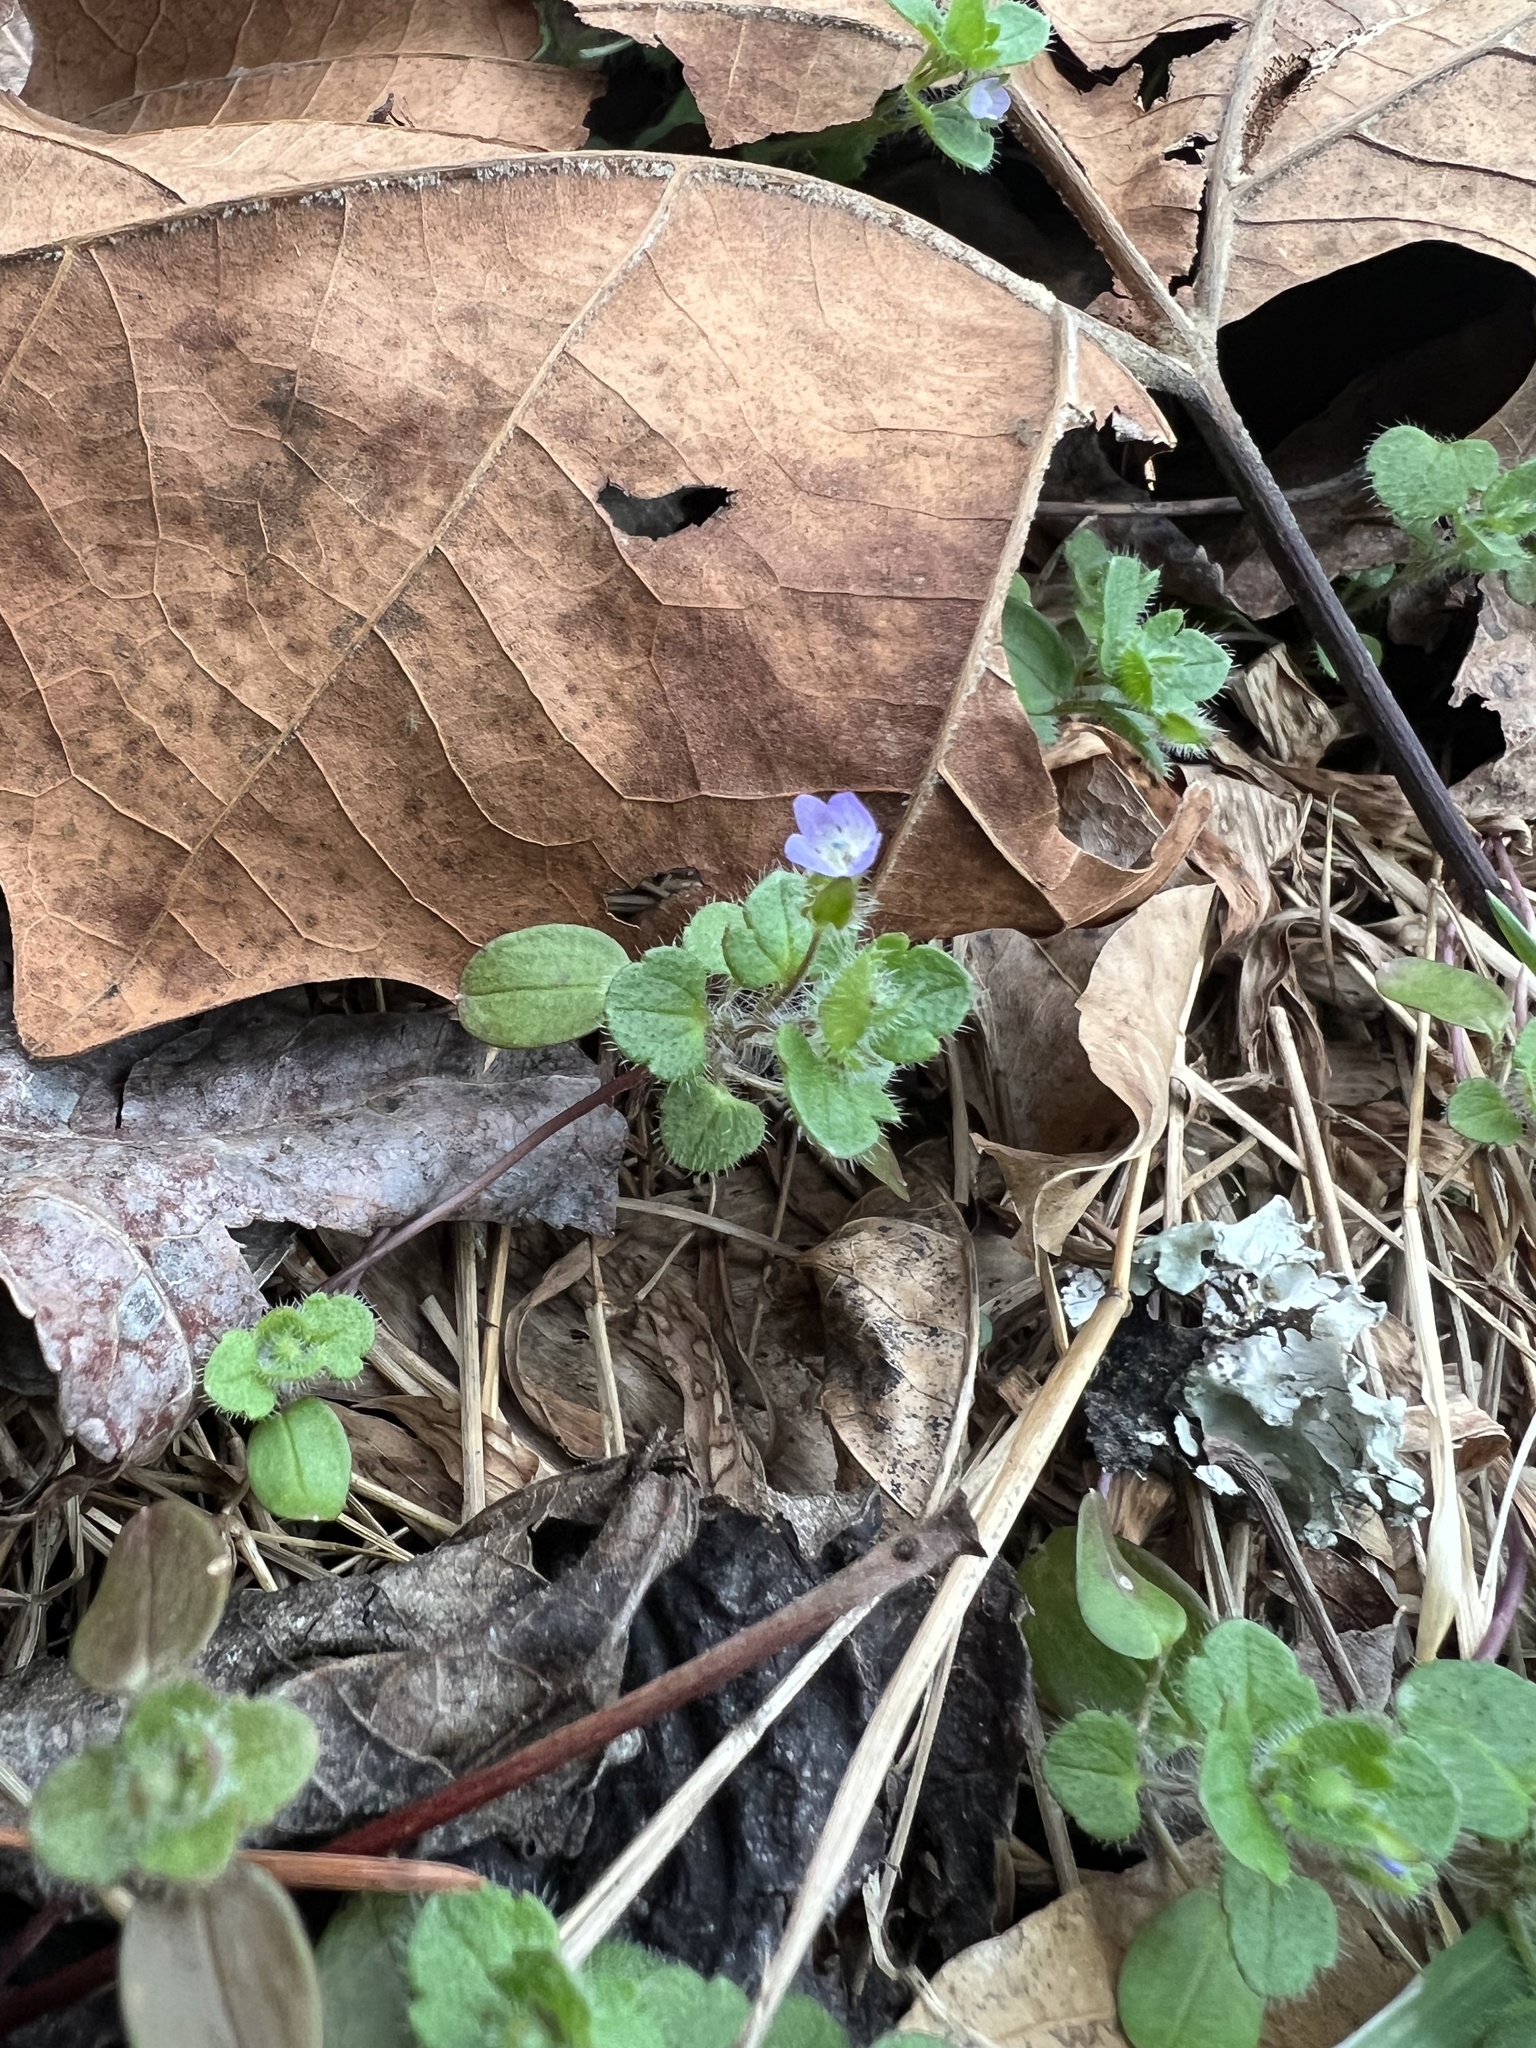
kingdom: Plantae
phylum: Tracheophyta
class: Magnoliopsida
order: Lamiales
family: Plantaginaceae
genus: Veronica
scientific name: Veronica hederifolia
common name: Ivy-leaved speedwell
